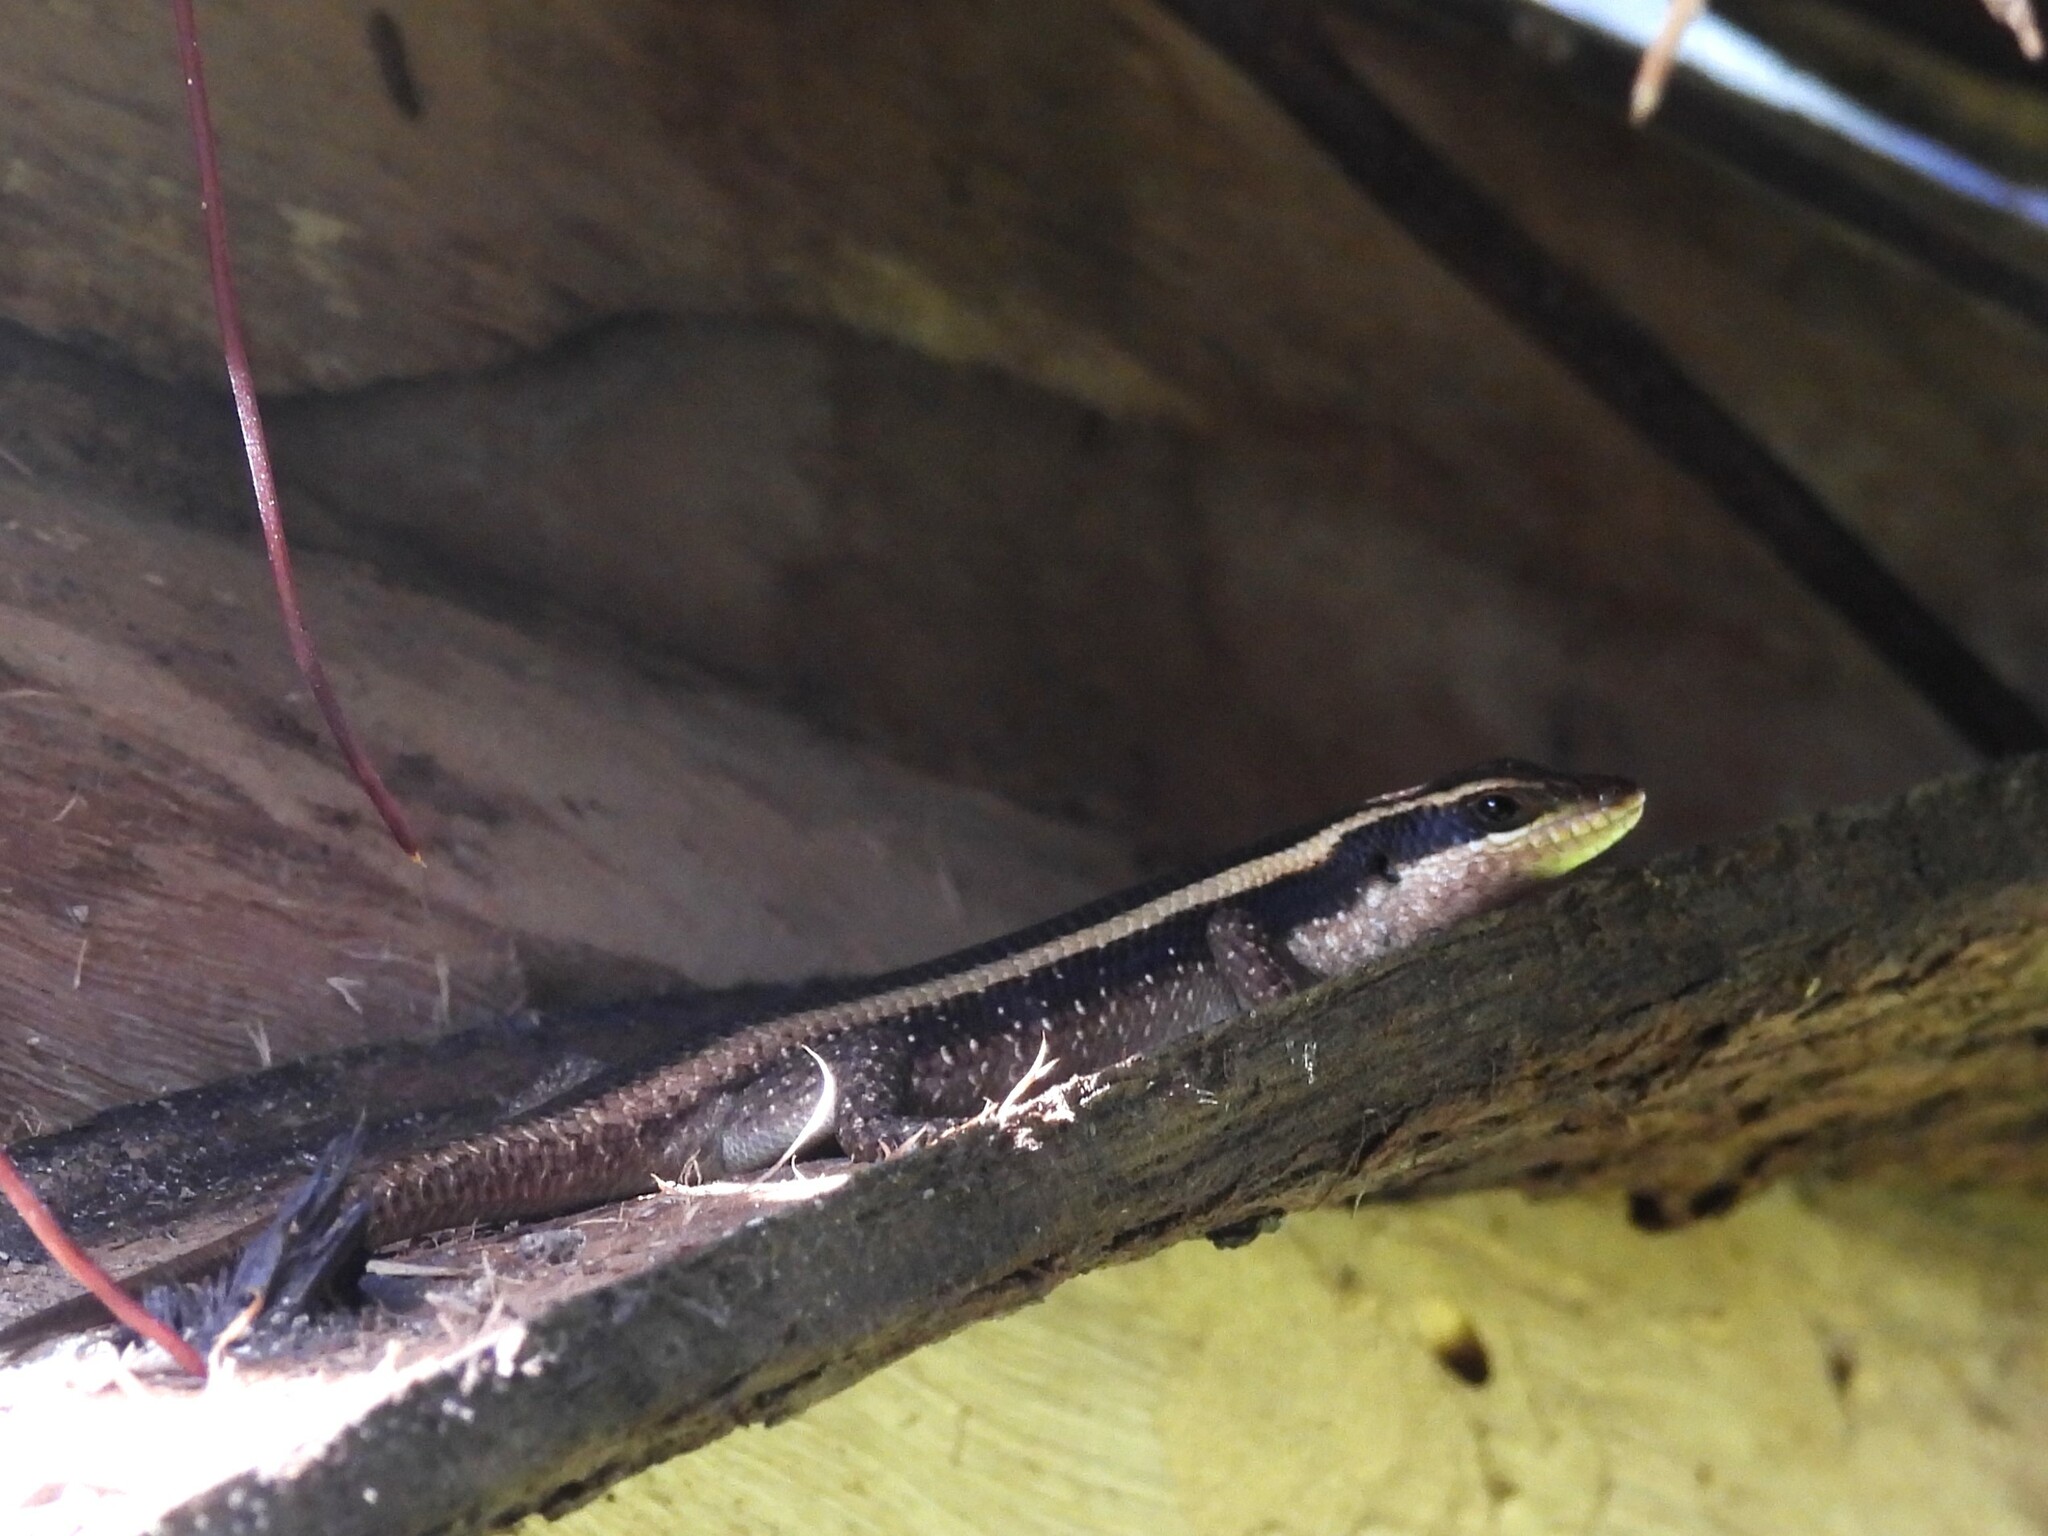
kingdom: Animalia
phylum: Chordata
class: Squamata
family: Scincidae
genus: Trachylepis
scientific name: Trachylepis striata
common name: African striped mabuya
